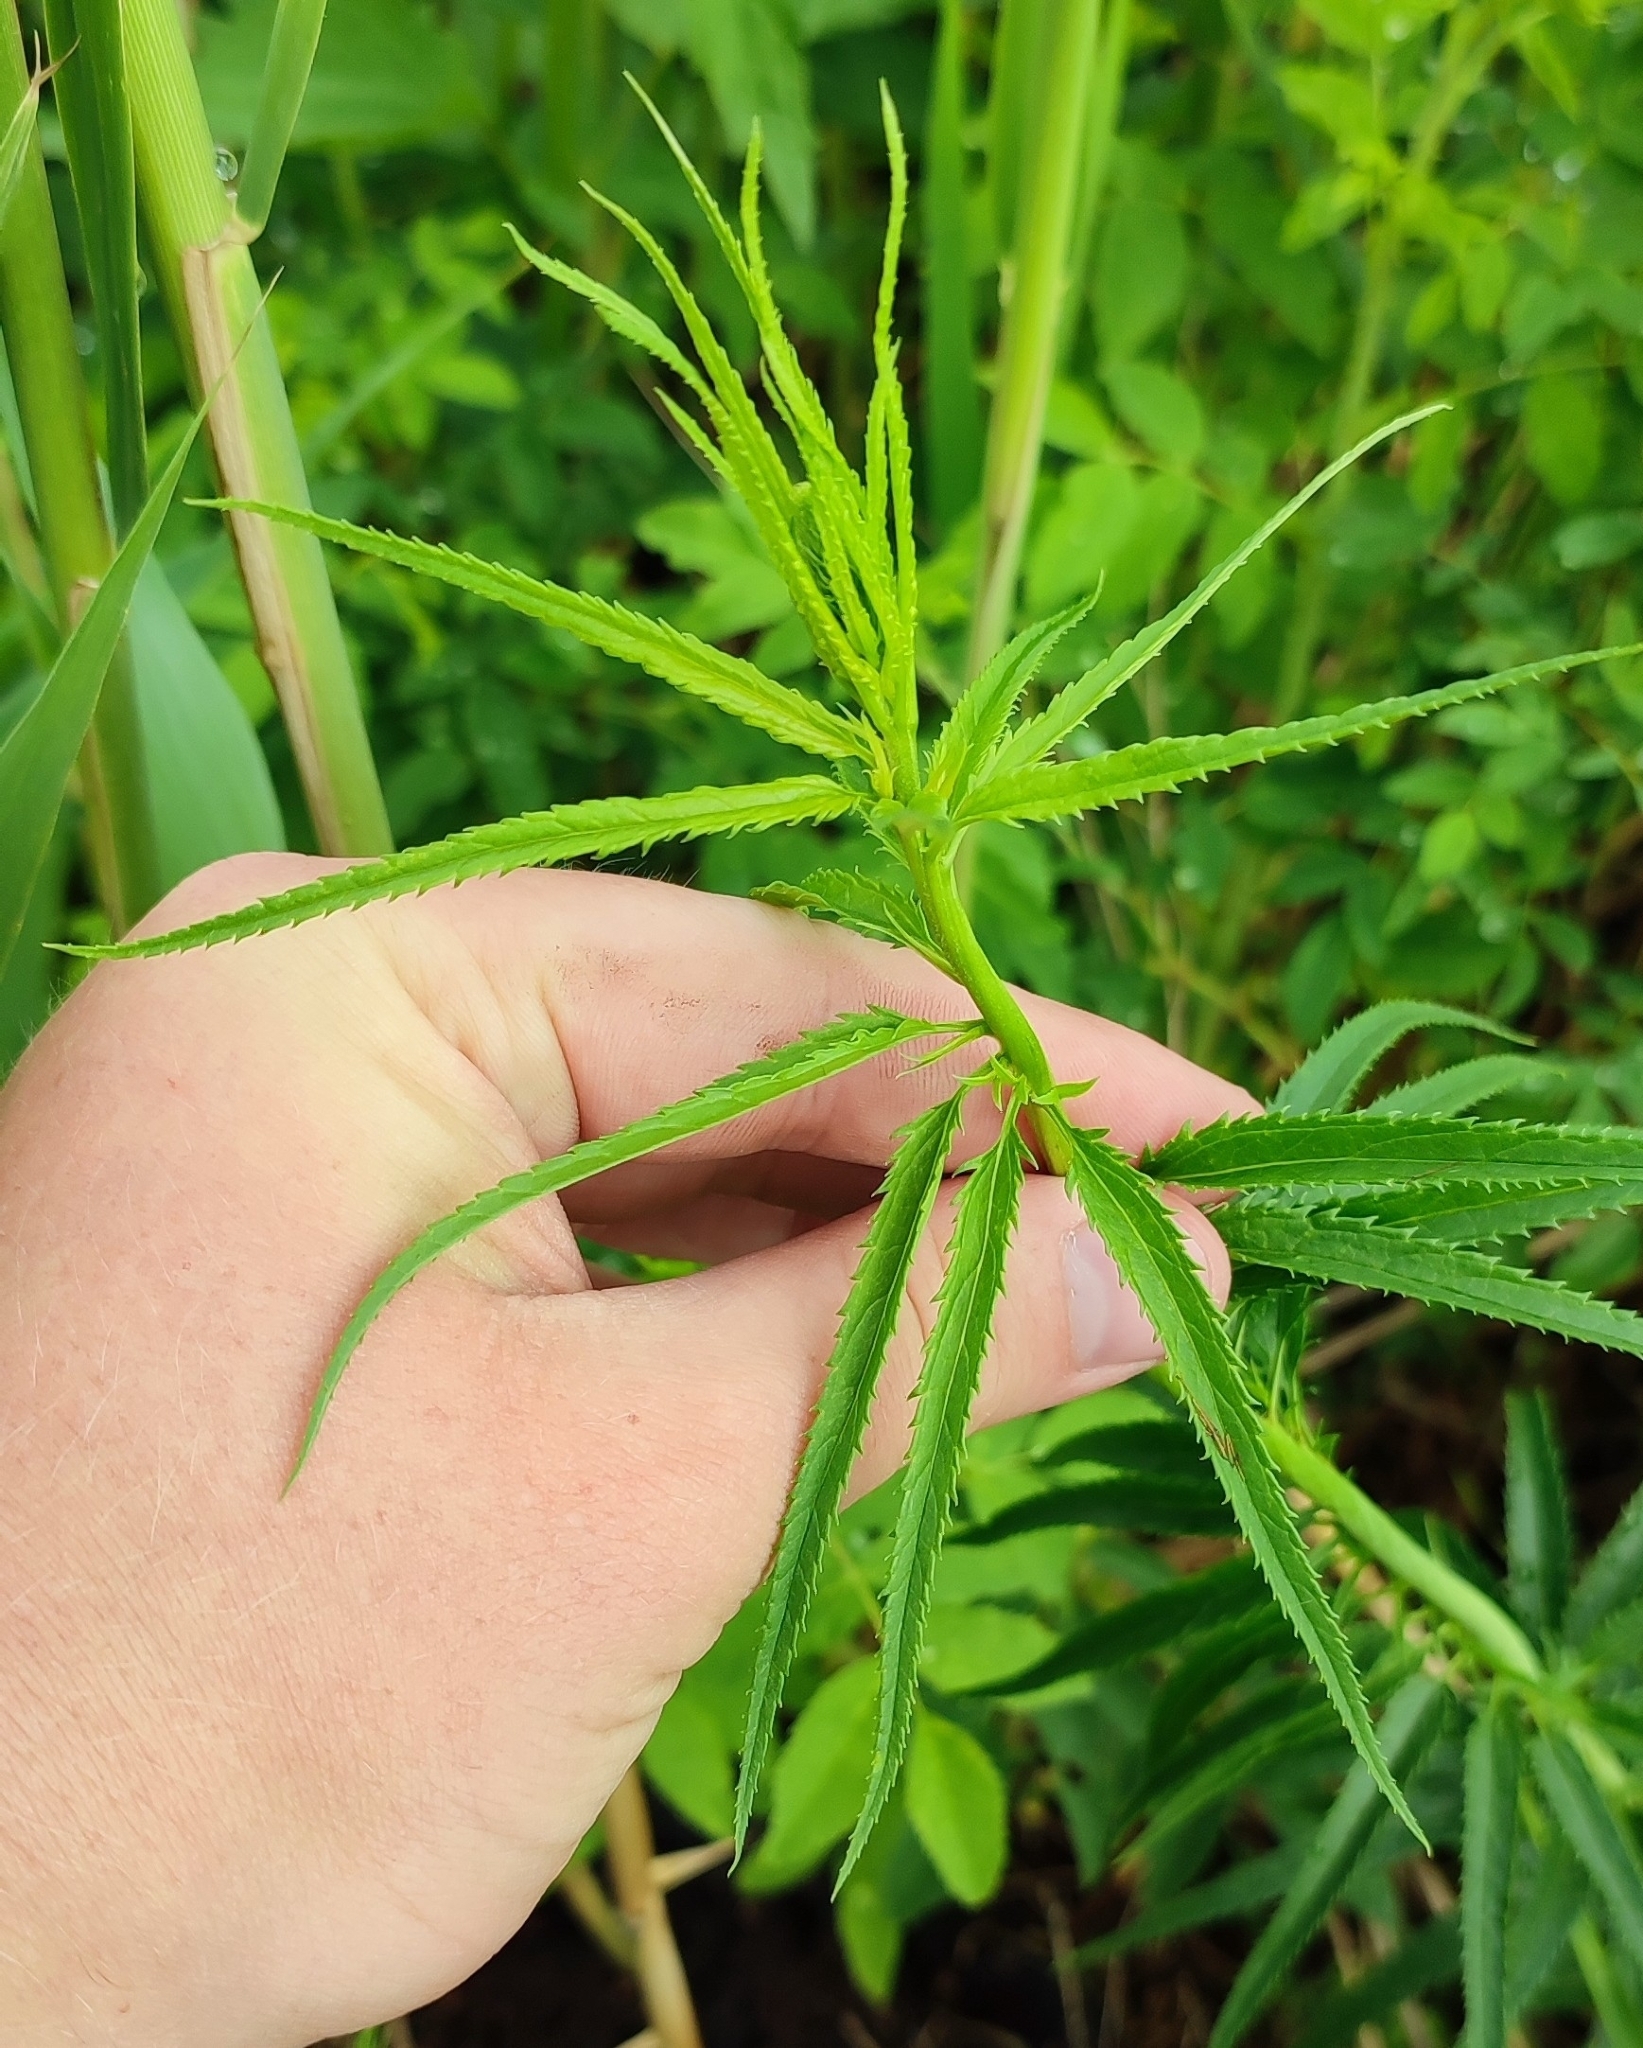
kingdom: Plantae
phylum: Tracheophyta
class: Magnoliopsida
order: Lamiales
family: Plantaginaceae
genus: Veronica
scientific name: Veronica longifolia
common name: Garden speedwell
